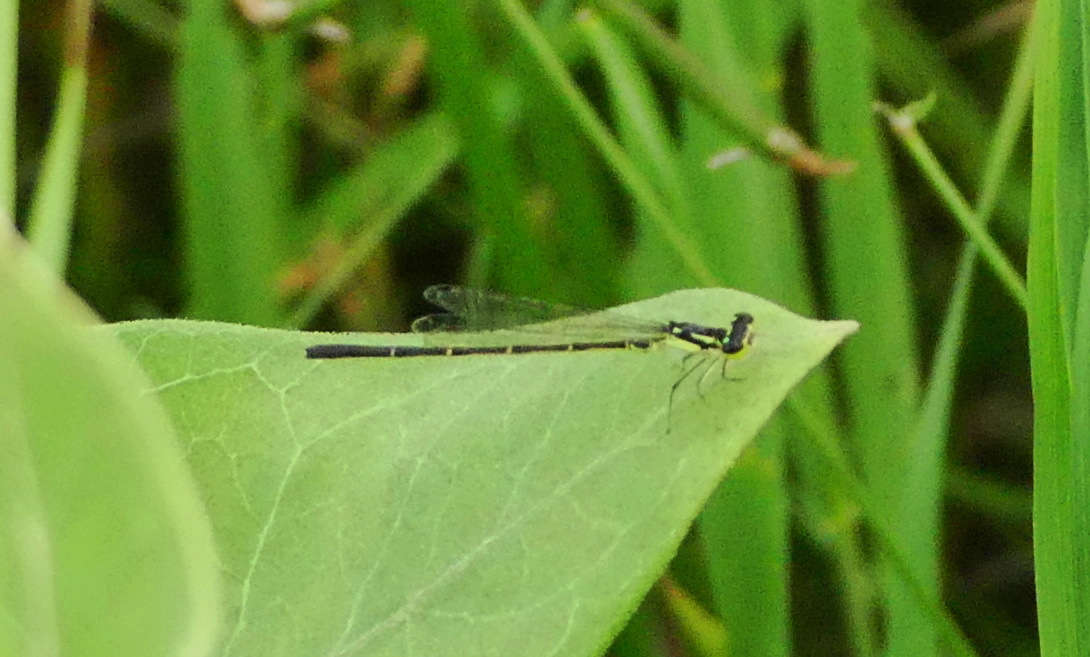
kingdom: Animalia
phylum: Arthropoda
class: Insecta
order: Odonata
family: Coenagrionidae
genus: Ischnura
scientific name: Ischnura posita
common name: Fragile forktail
